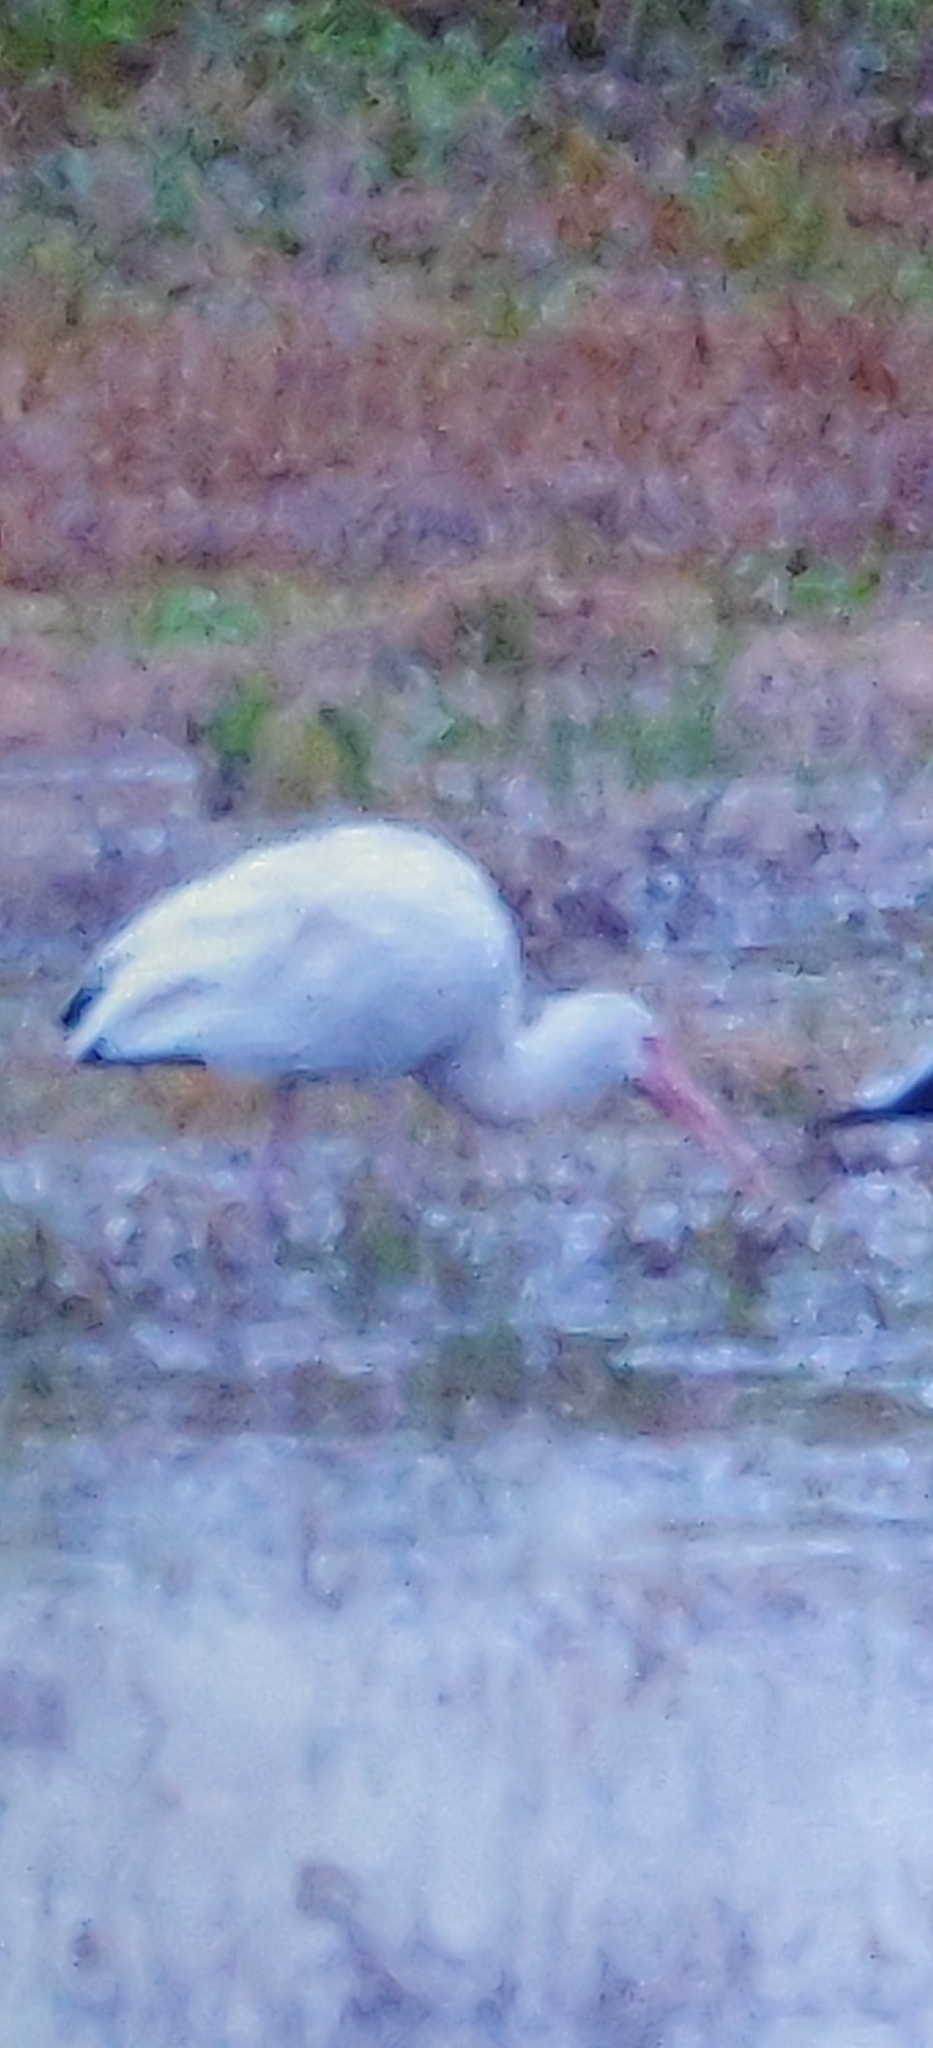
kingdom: Animalia
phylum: Chordata
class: Aves
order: Pelecaniformes
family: Threskiornithidae
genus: Eudocimus
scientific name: Eudocimus albus
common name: White ibis
